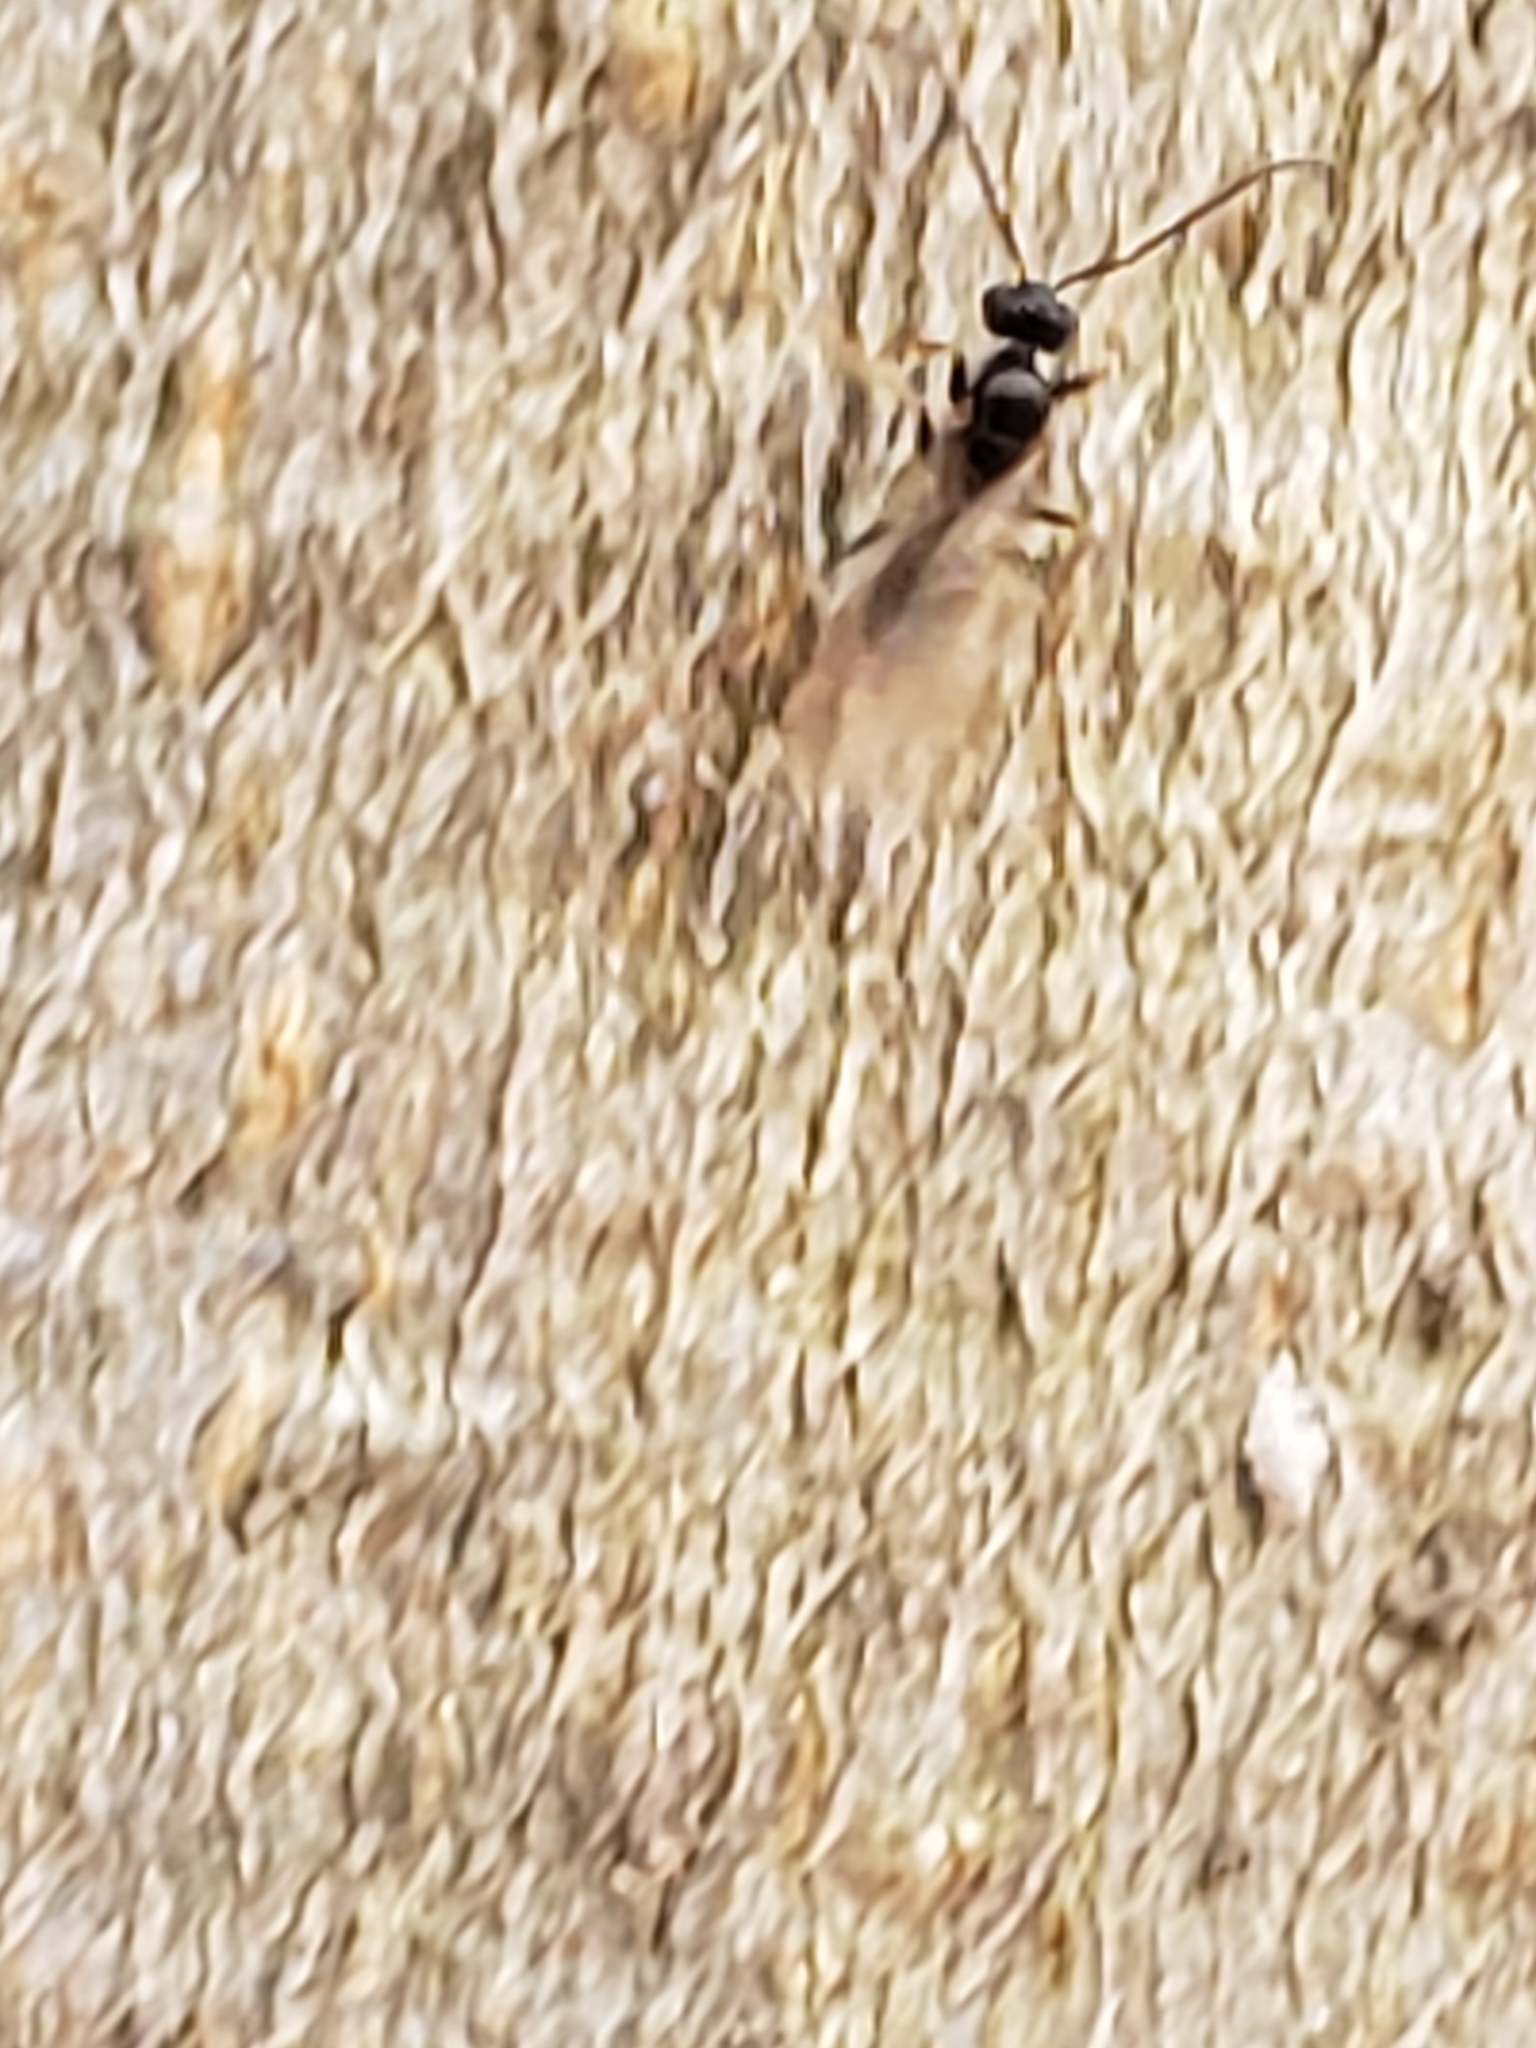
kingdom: Animalia
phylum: Arthropoda
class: Insecta
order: Hymenoptera
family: Formicidae
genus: Prenolepis
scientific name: Prenolepis imparis
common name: Small honey ant
